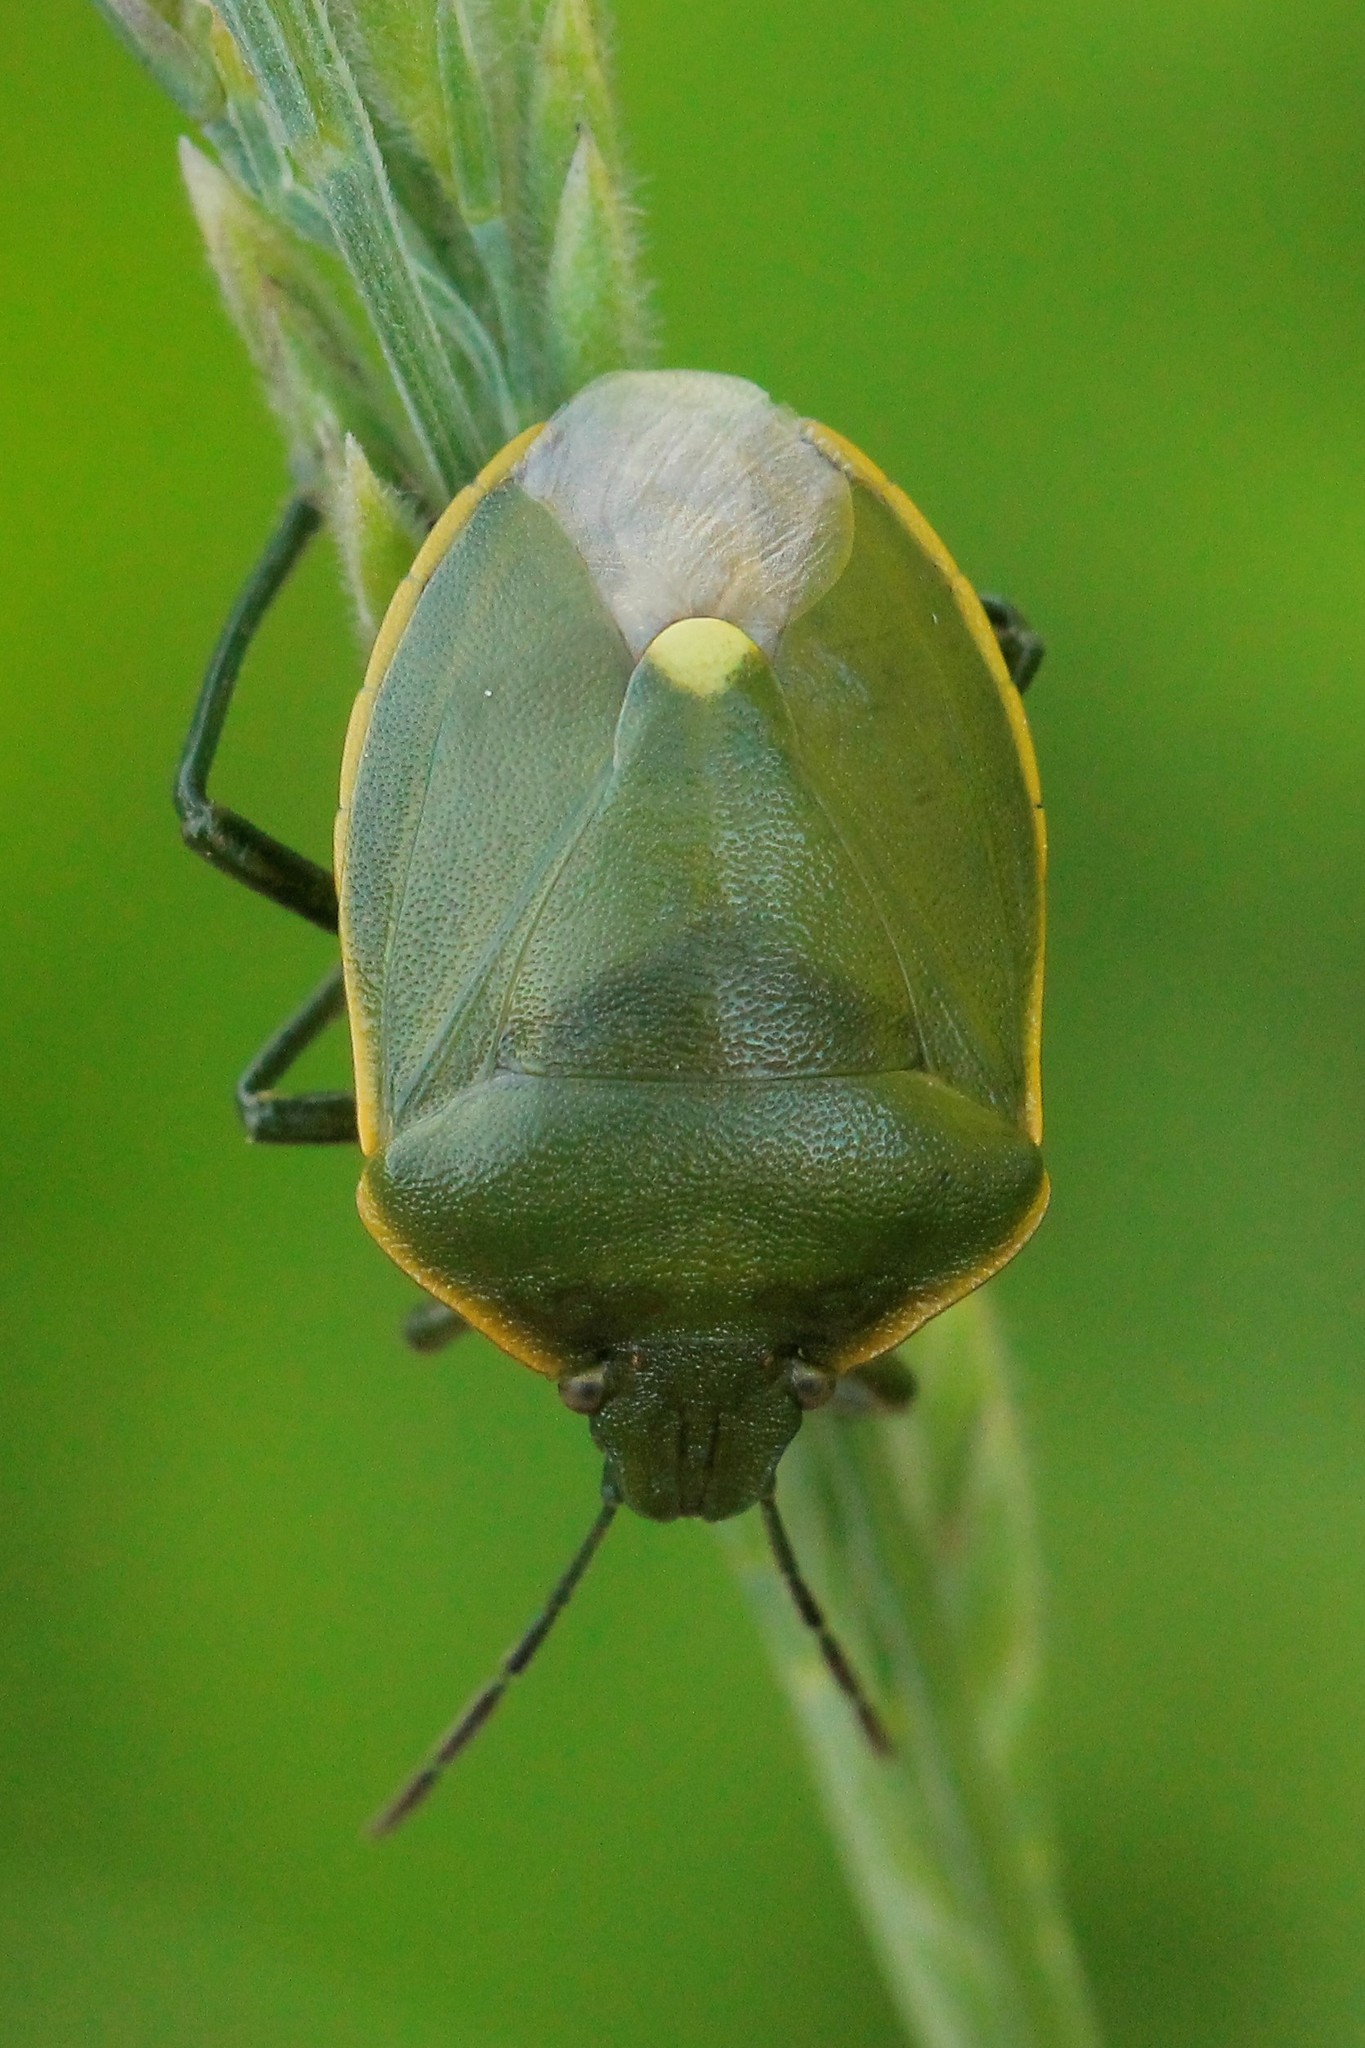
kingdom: Animalia
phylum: Arthropoda
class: Insecta
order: Hemiptera
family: Pentatomidae
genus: Chlorochroa
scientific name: Chlorochroa juniperina
